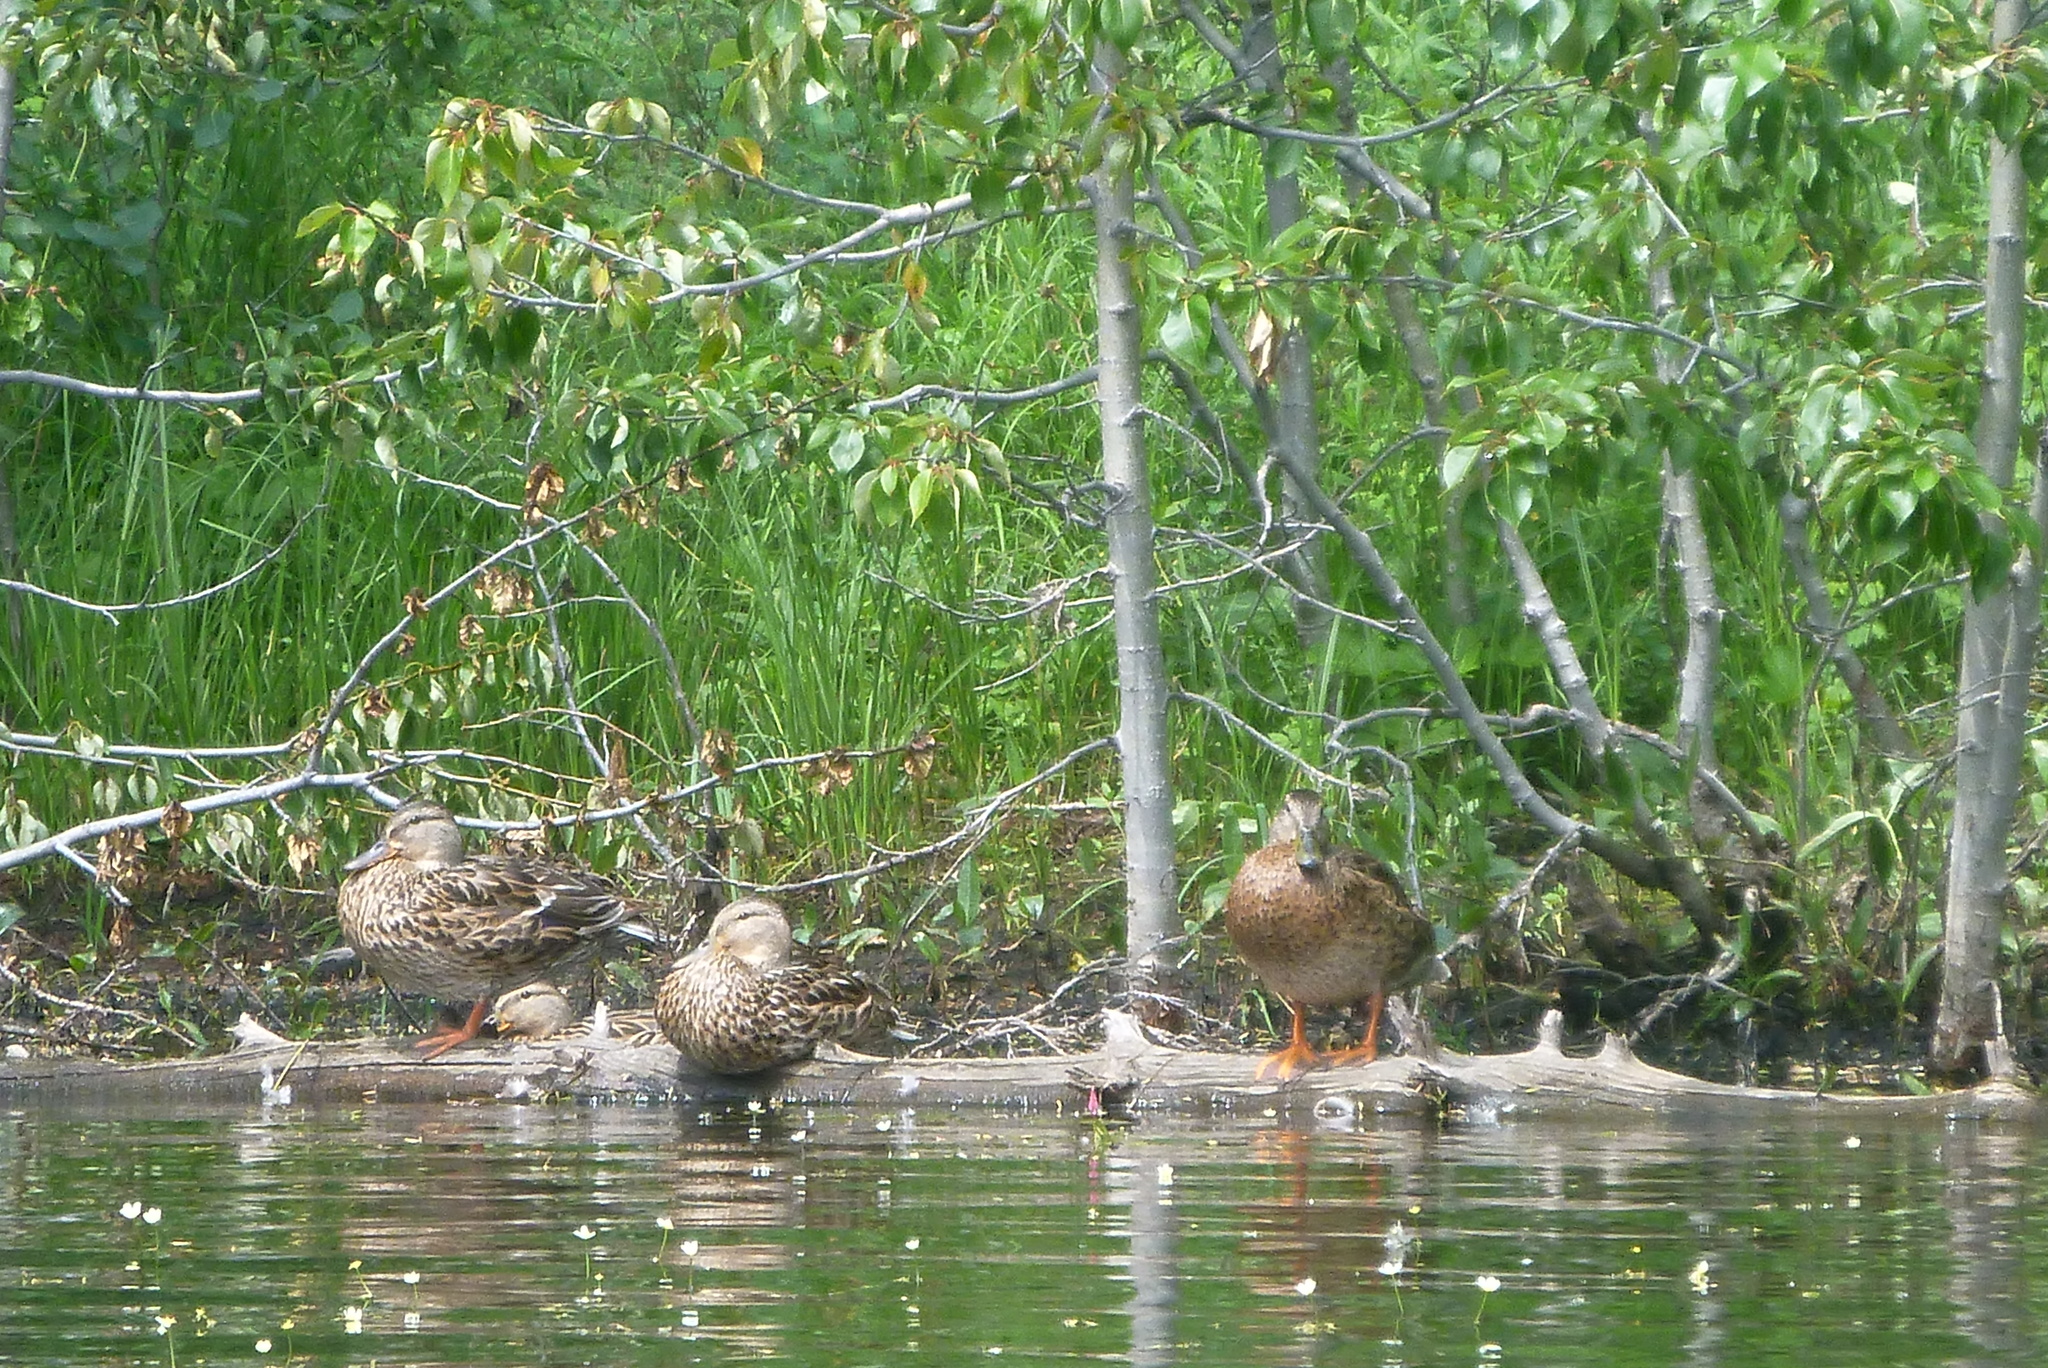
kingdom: Animalia
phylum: Chordata
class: Aves
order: Anseriformes
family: Anatidae
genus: Anas
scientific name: Anas platyrhynchos
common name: Mallard
